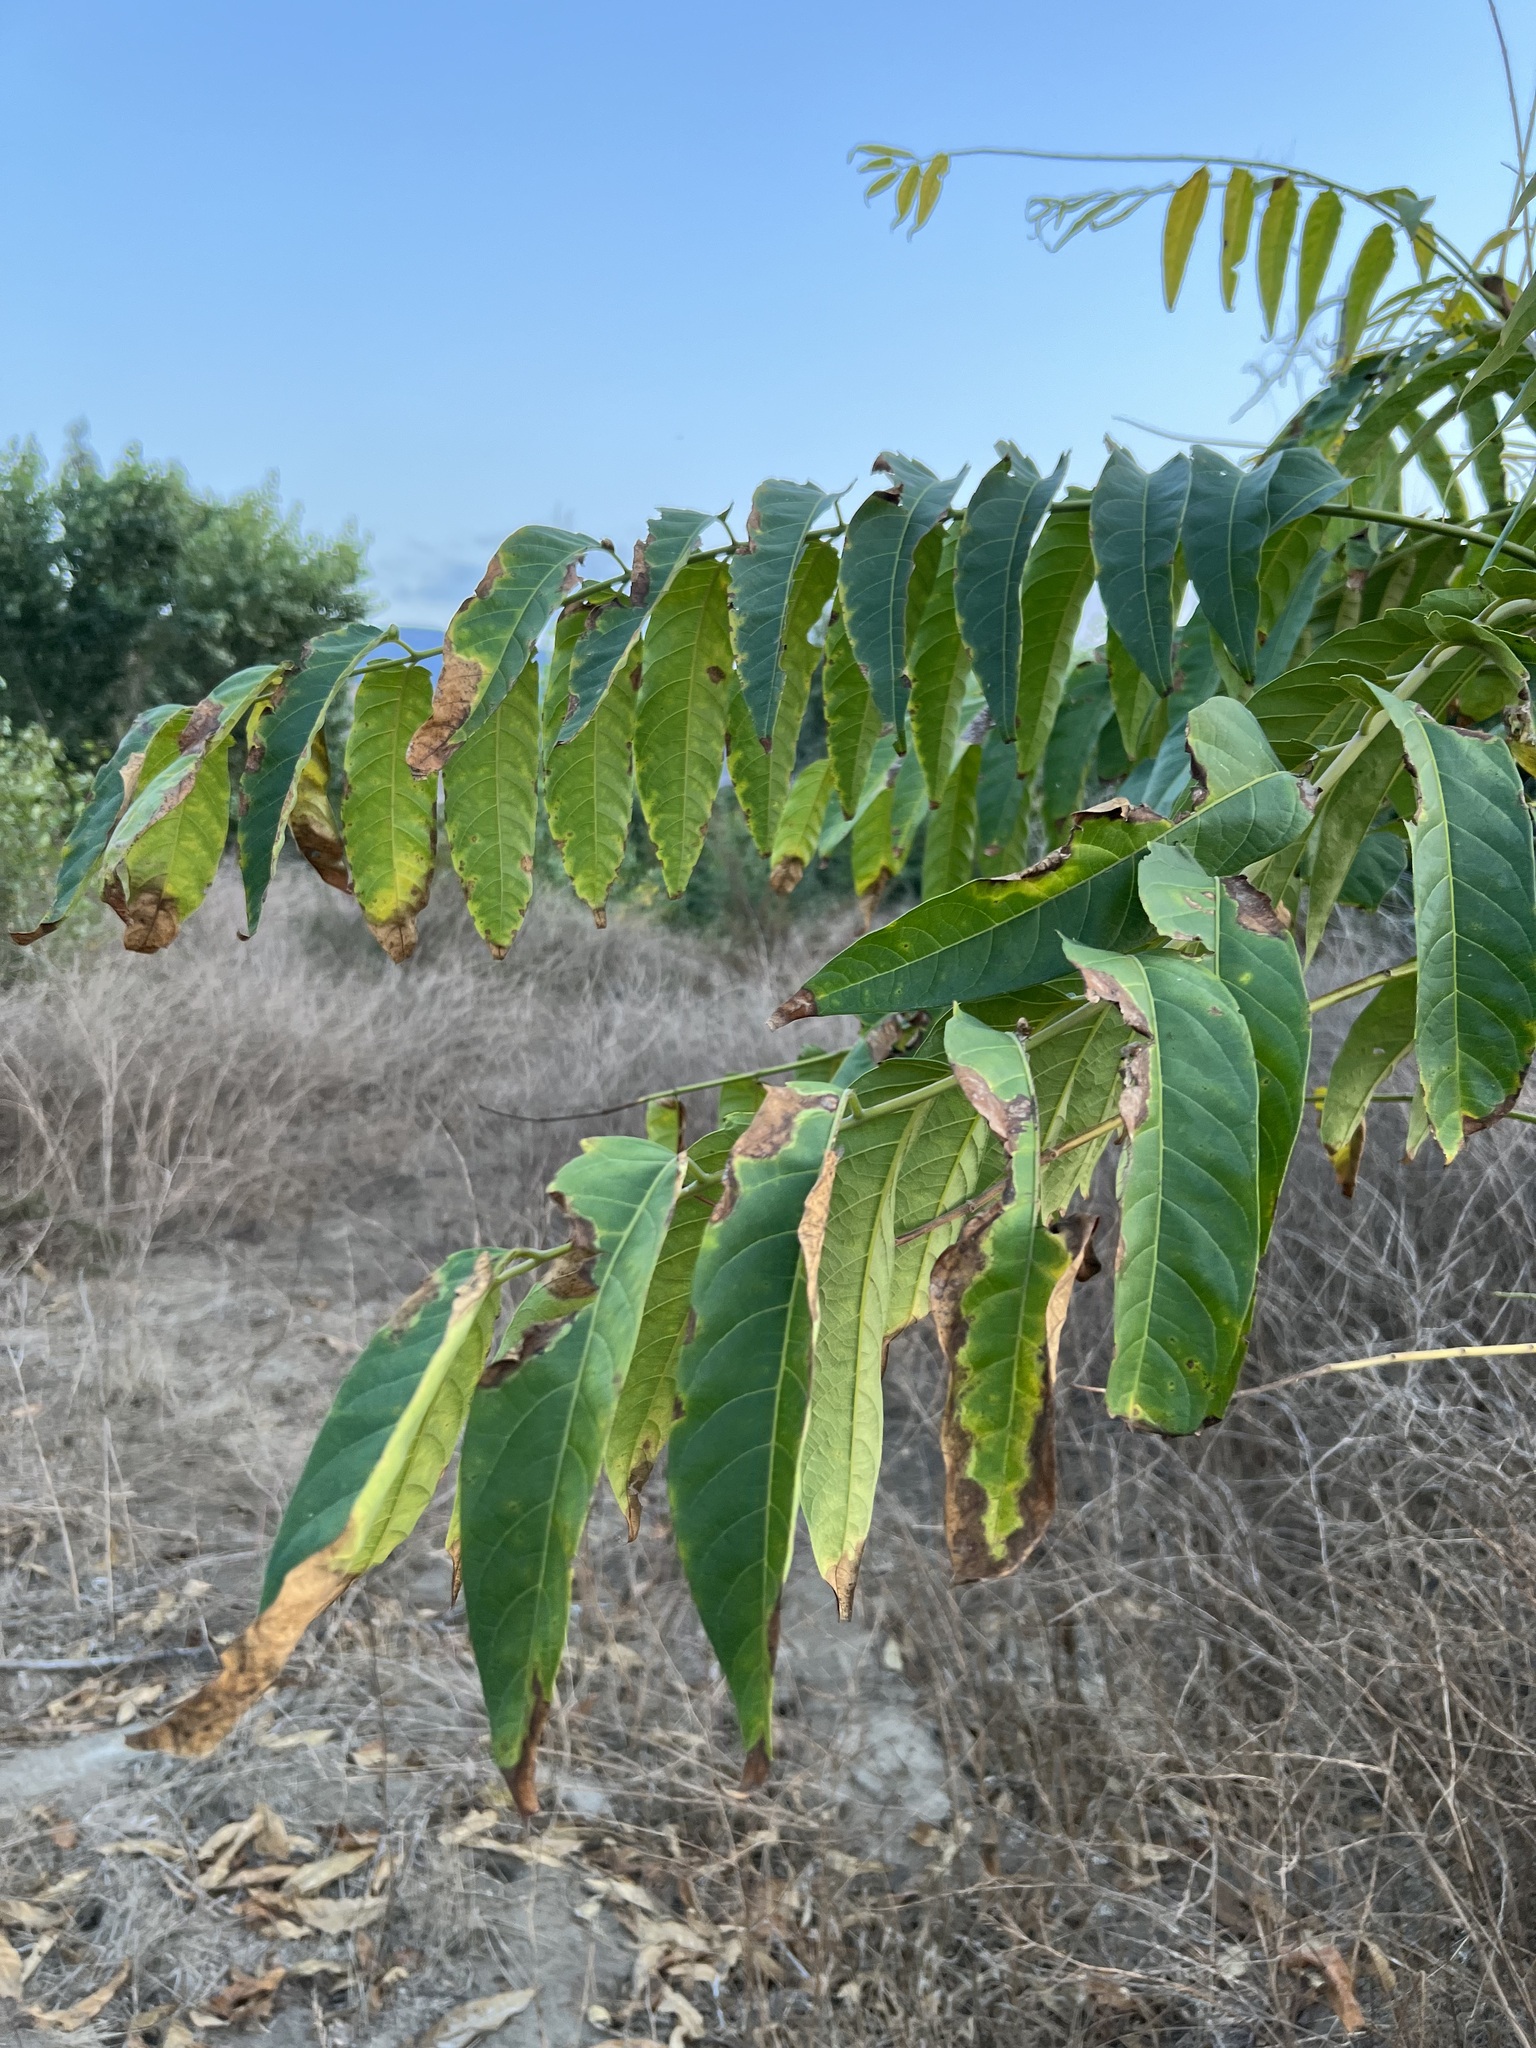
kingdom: Plantae
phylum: Tracheophyta
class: Magnoliopsida
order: Sapindales
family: Simaroubaceae
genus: Ailanthus
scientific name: Ailanthus altissima
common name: Tree-of-heaven
